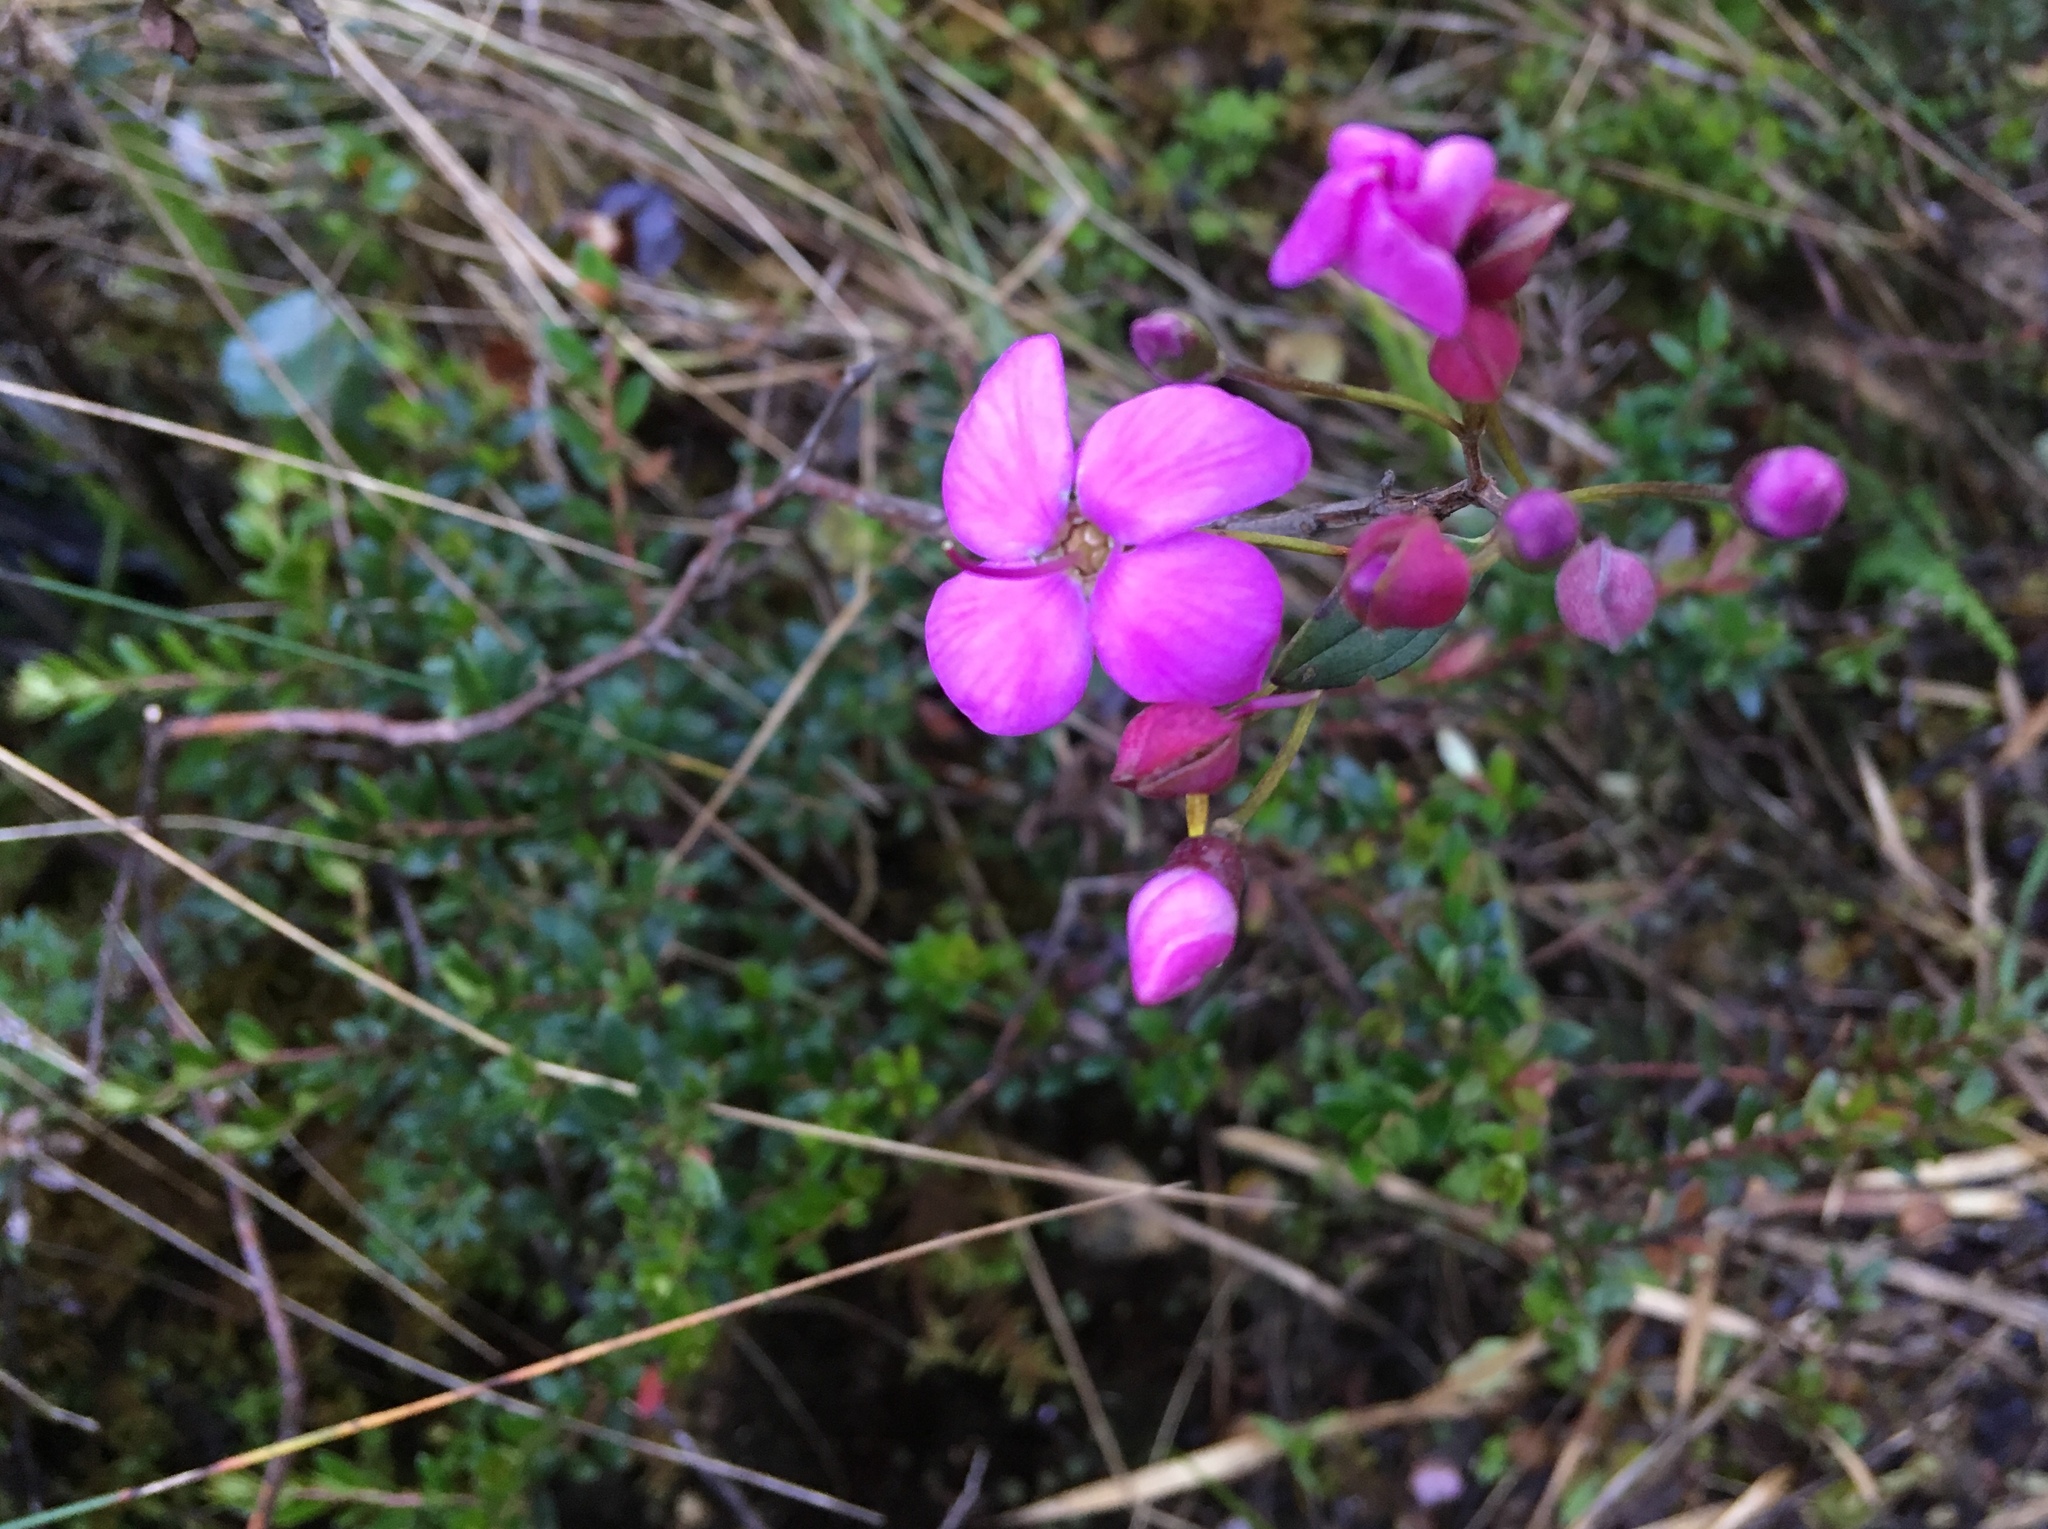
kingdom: Plantae
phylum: Tracheophyta
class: Magnoliopsida
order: Myrtales
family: Melastomataceae
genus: Bucquetia
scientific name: Bucquetia glutinosa
